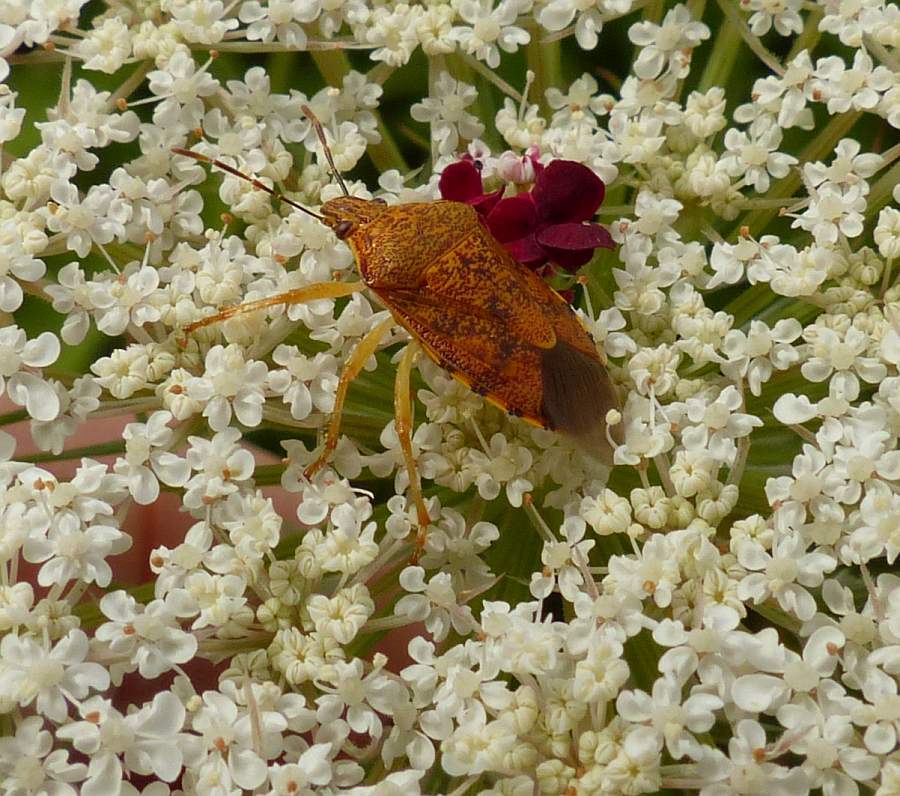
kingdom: Animalia
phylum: Arthropoda
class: Insecta
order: Hemiptera
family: Pentatomidae
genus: Podisus
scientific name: Podisus placidus
